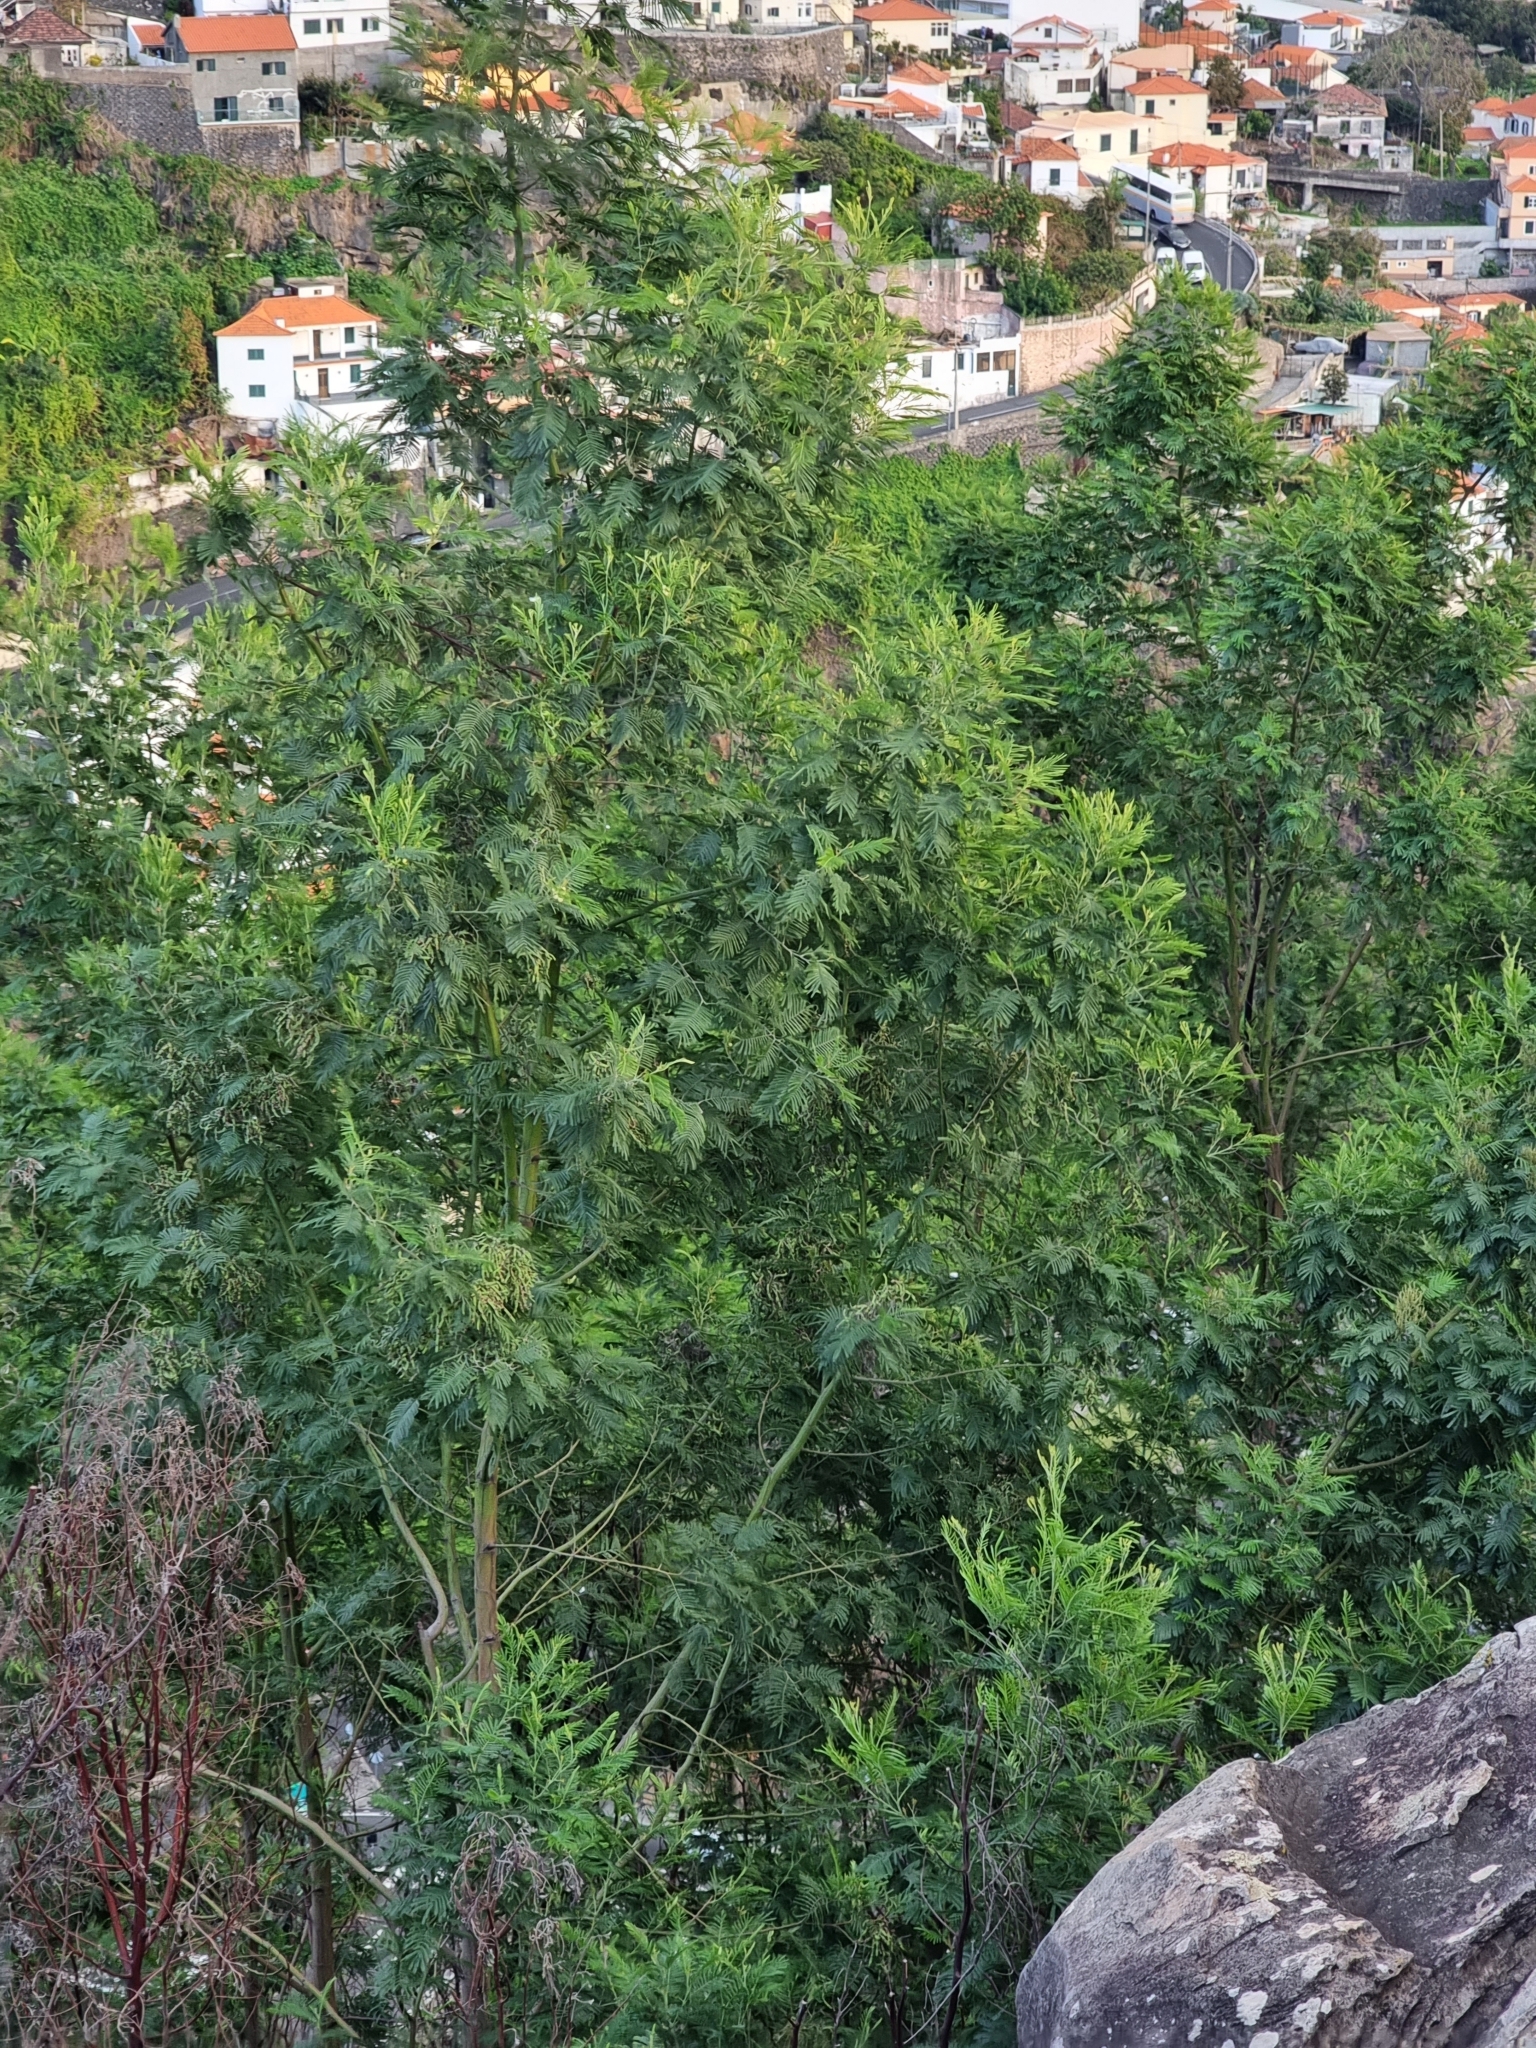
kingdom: Plantae
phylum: Tracheophyta
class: Magnoliopsida
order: Fabales
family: Fabaceae
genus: Acacia
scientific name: Acacia mearnsii
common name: Black wattle
